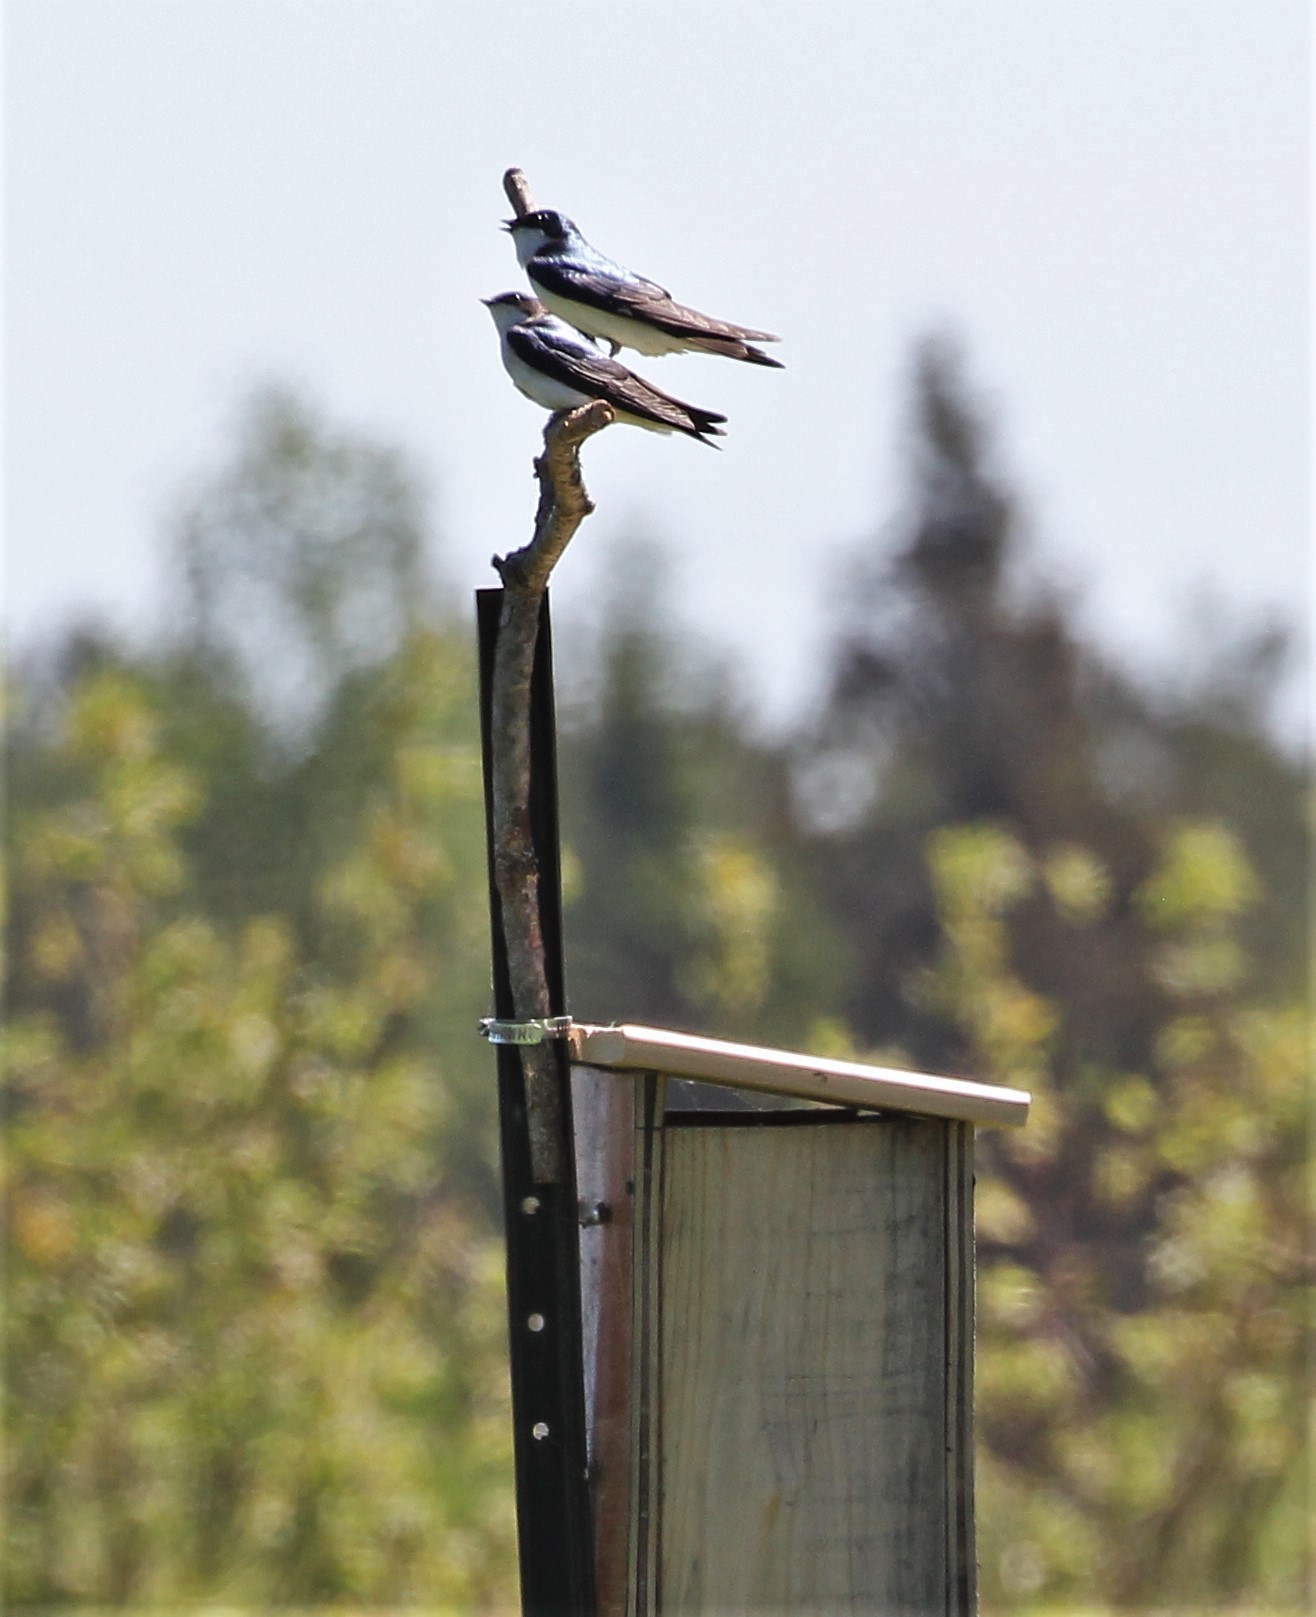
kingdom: Animalia
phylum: Chordata
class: Aves
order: Passeriformes
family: Hirundinidae
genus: Tachycineta
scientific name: Tachycineta bicolor
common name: Tree swallow
